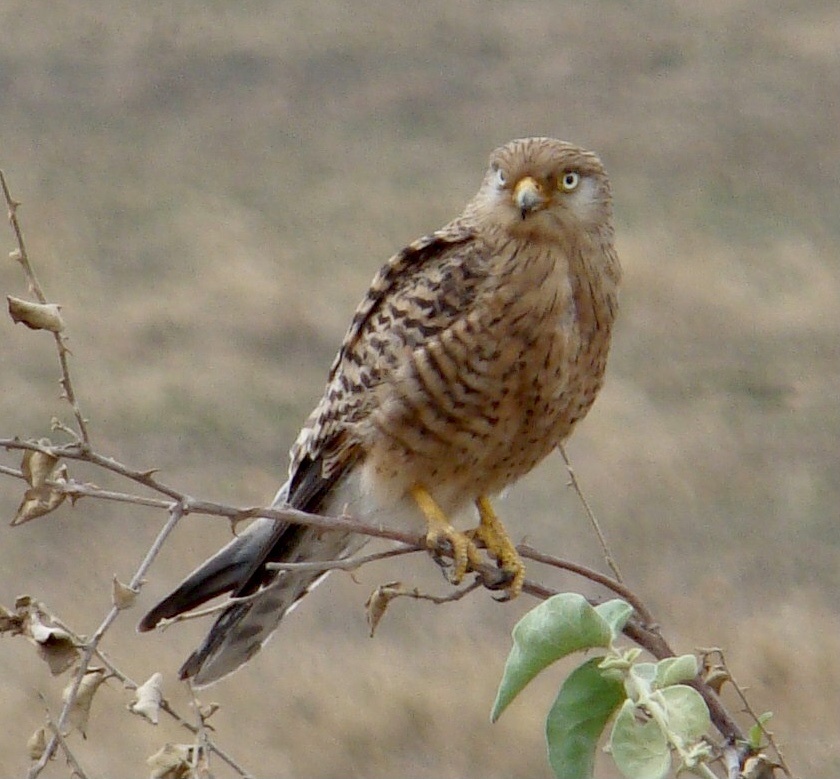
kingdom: Animalia
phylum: Chordata
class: Aves
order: Falconiformes
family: Falconidae
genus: Falco
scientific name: Falco rupicoloides
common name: Greater kestrel
